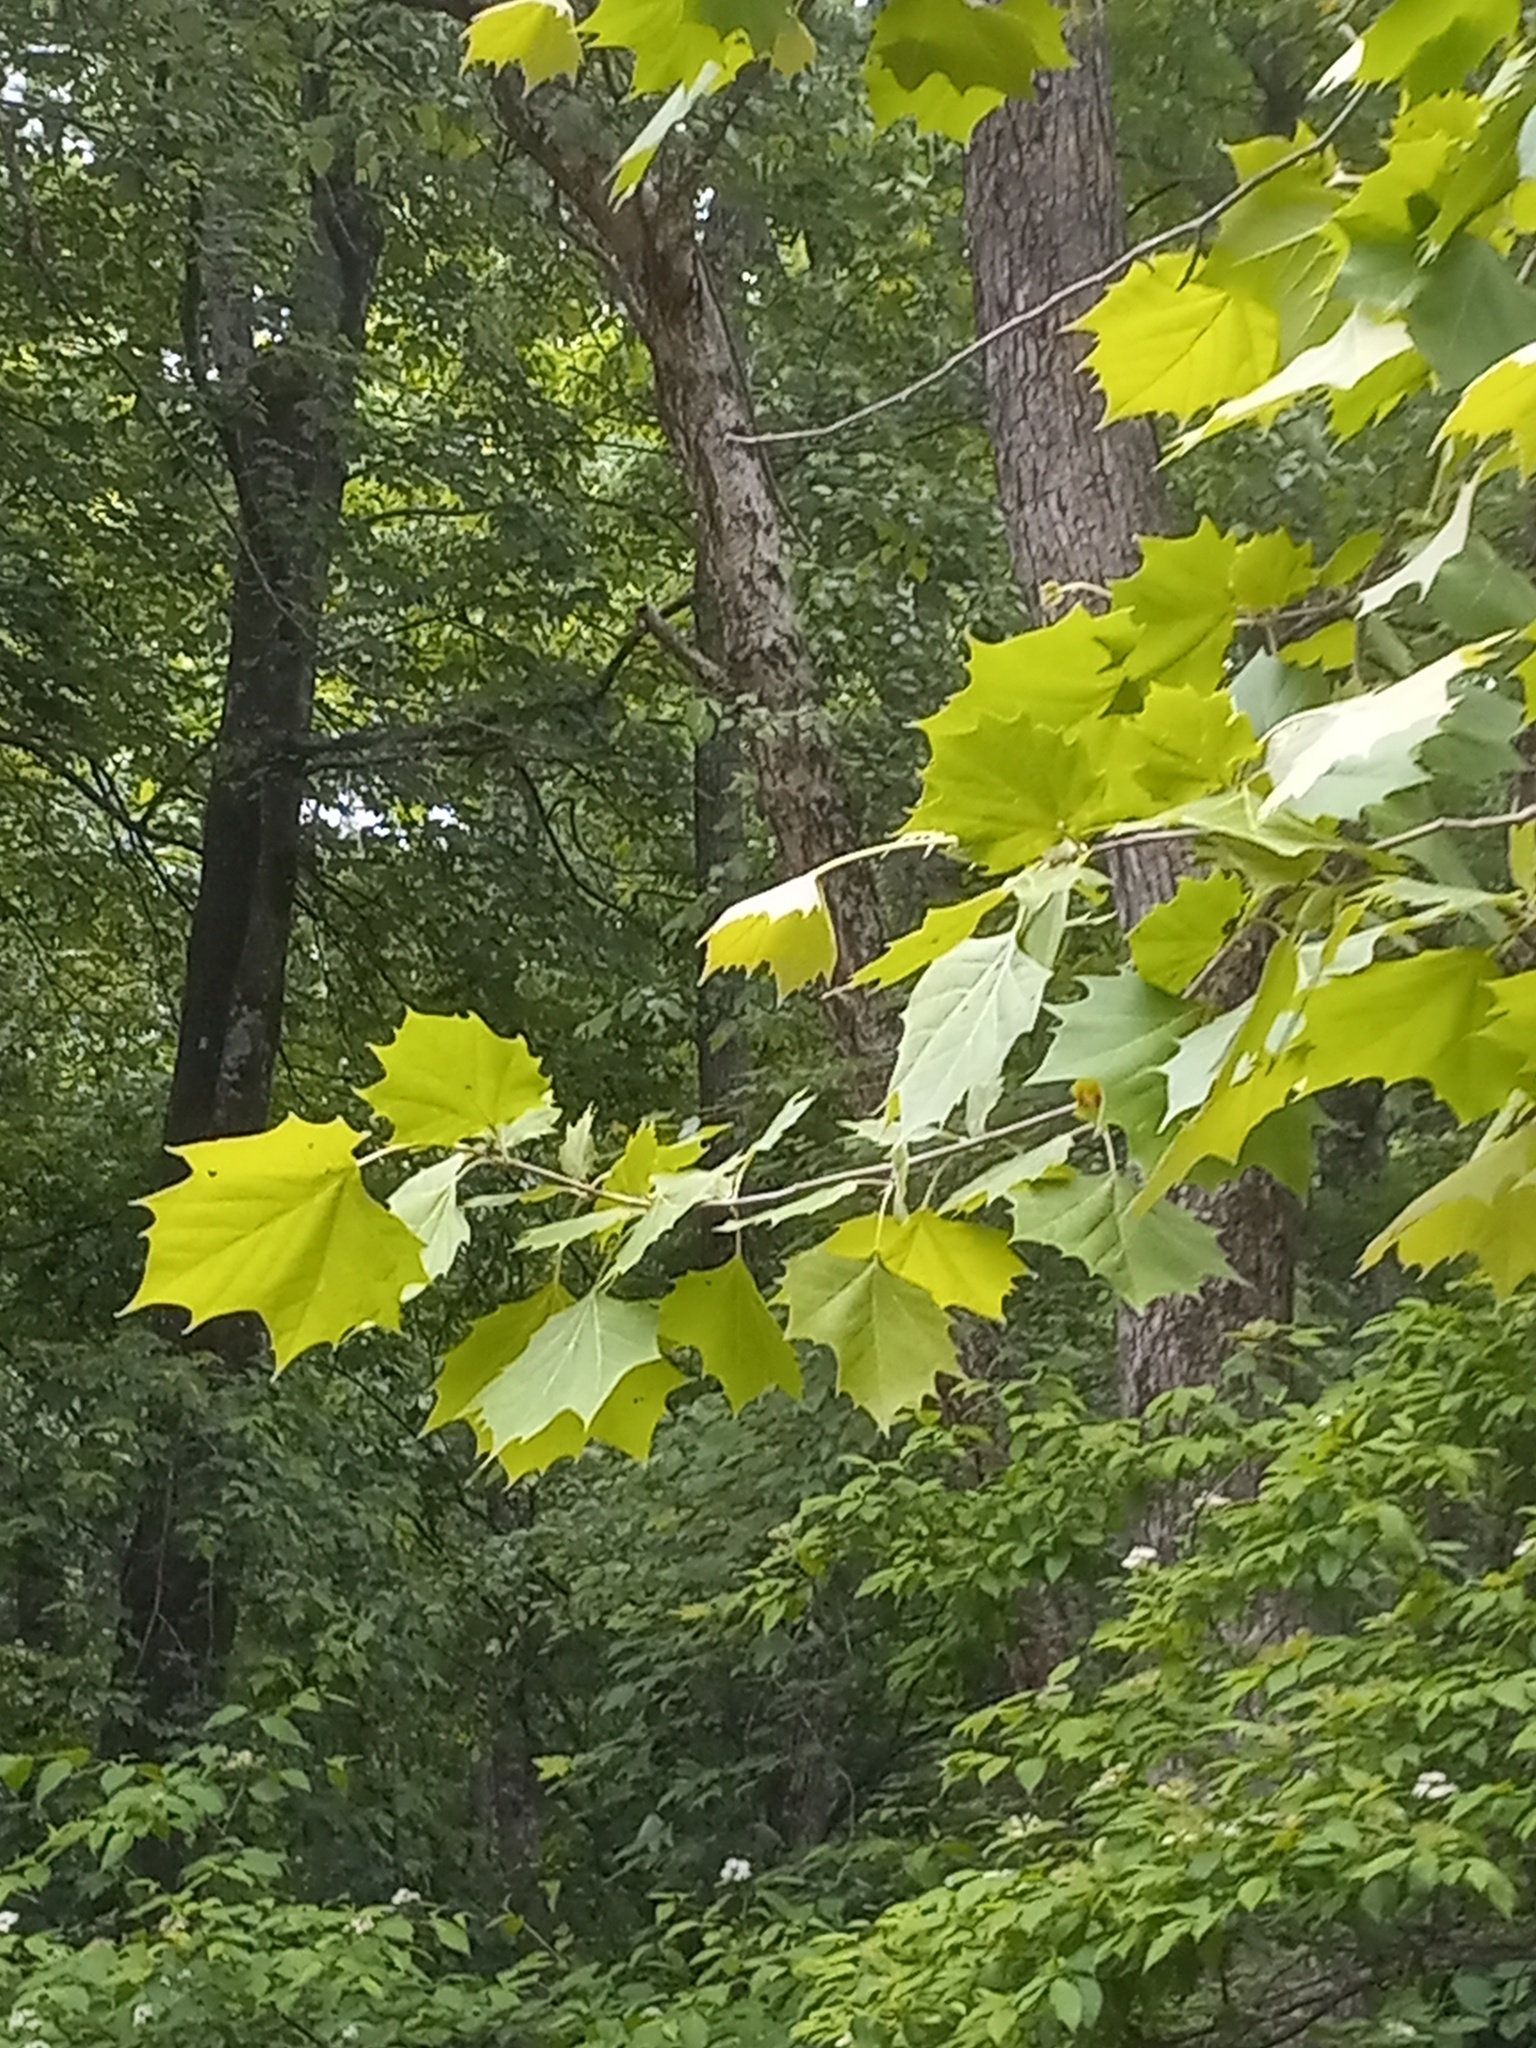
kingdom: Plantae
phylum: Tracheophyta
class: Magnoliopsida
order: Proteales
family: Platanaceae
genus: Platanus
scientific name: Platanus occidentalis
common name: American sycamore
